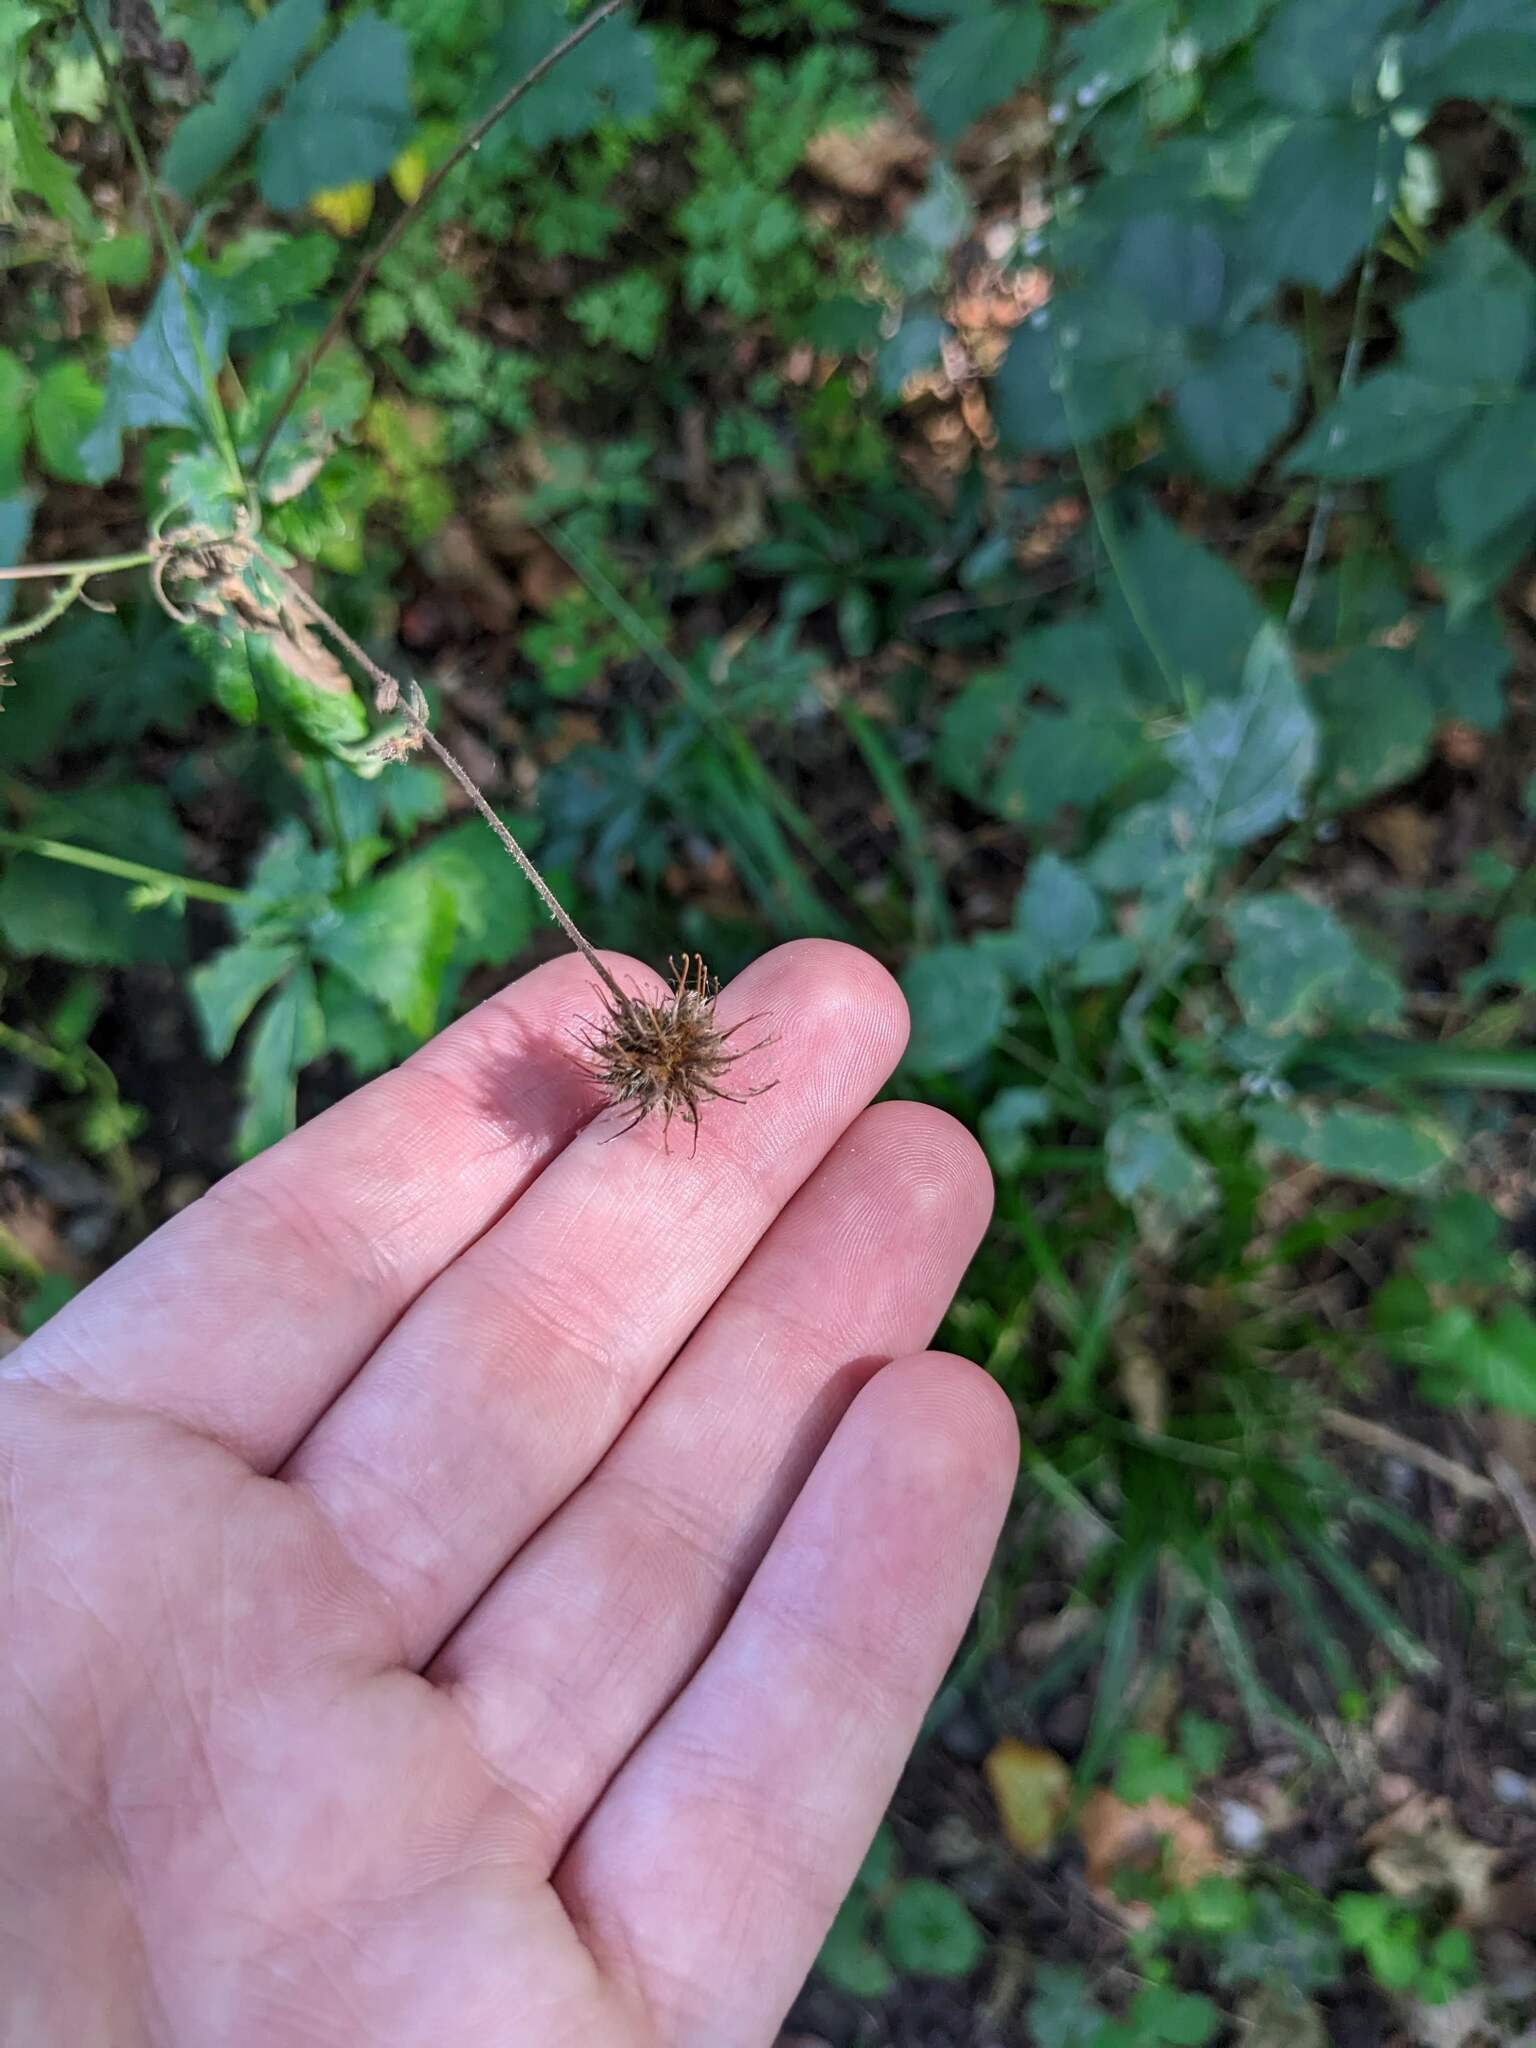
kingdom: Plantae
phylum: Tracheophyta
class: Magnoliopsida
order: Rosales
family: Rosaceae
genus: Geum
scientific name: Geum urbanum
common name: Wood avens
